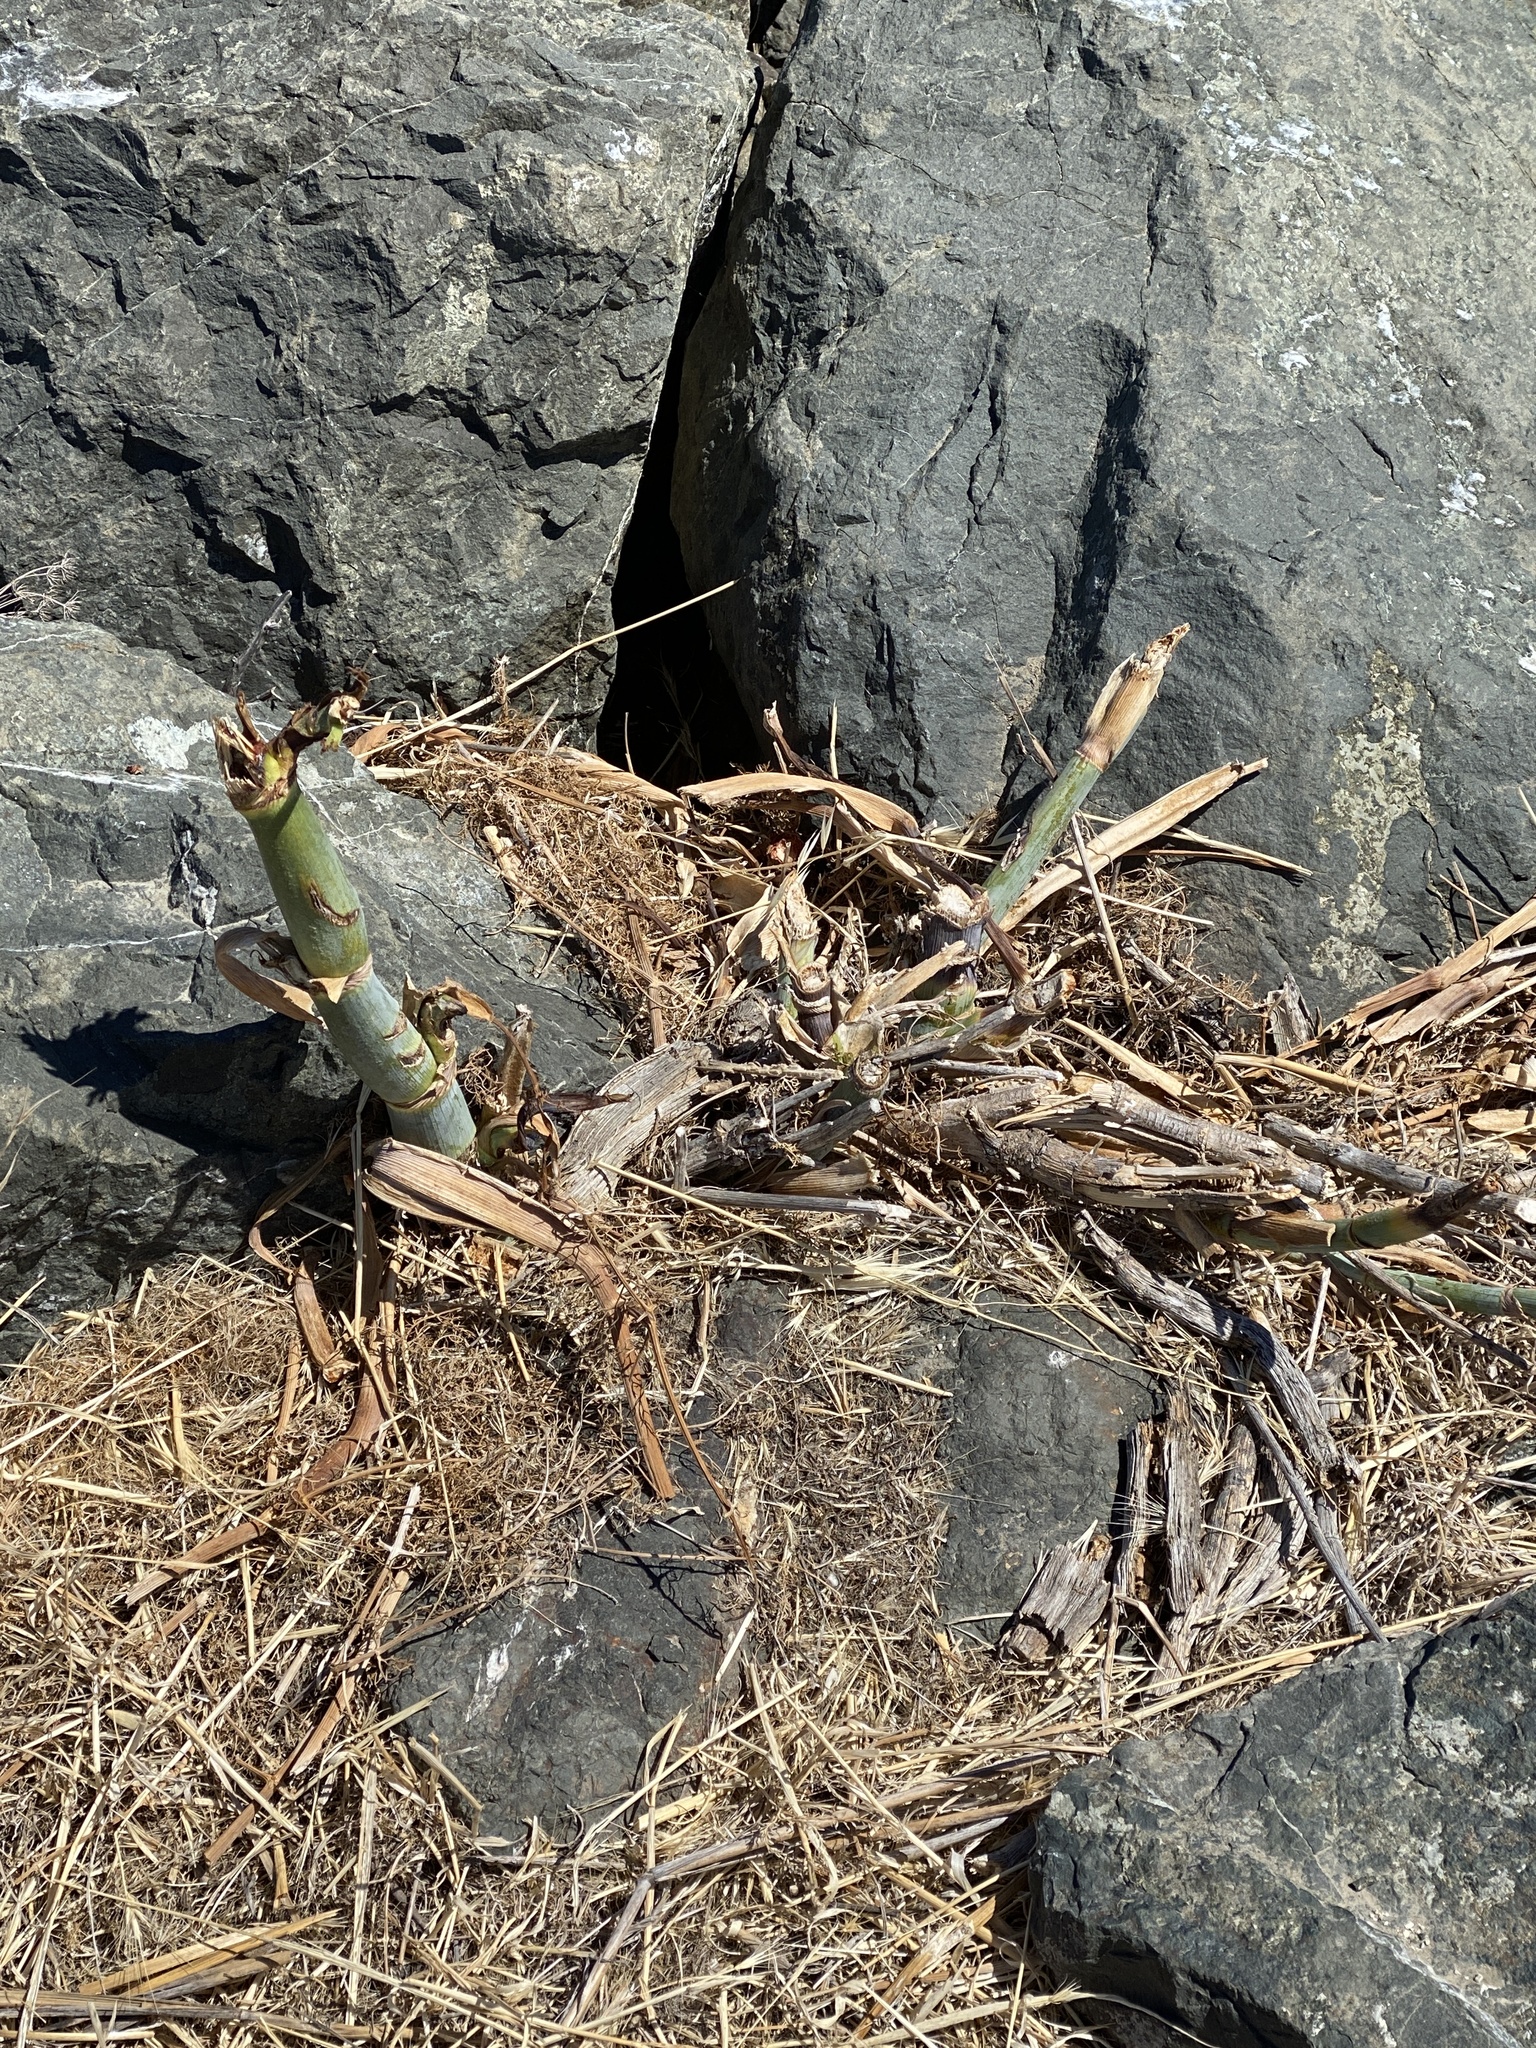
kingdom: Plantae
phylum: Tracheophyta
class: Magnoliopsida
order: Apiales
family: Apiaceae
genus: Foeniculum
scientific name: Foeniculum vulgare
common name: Fennel
